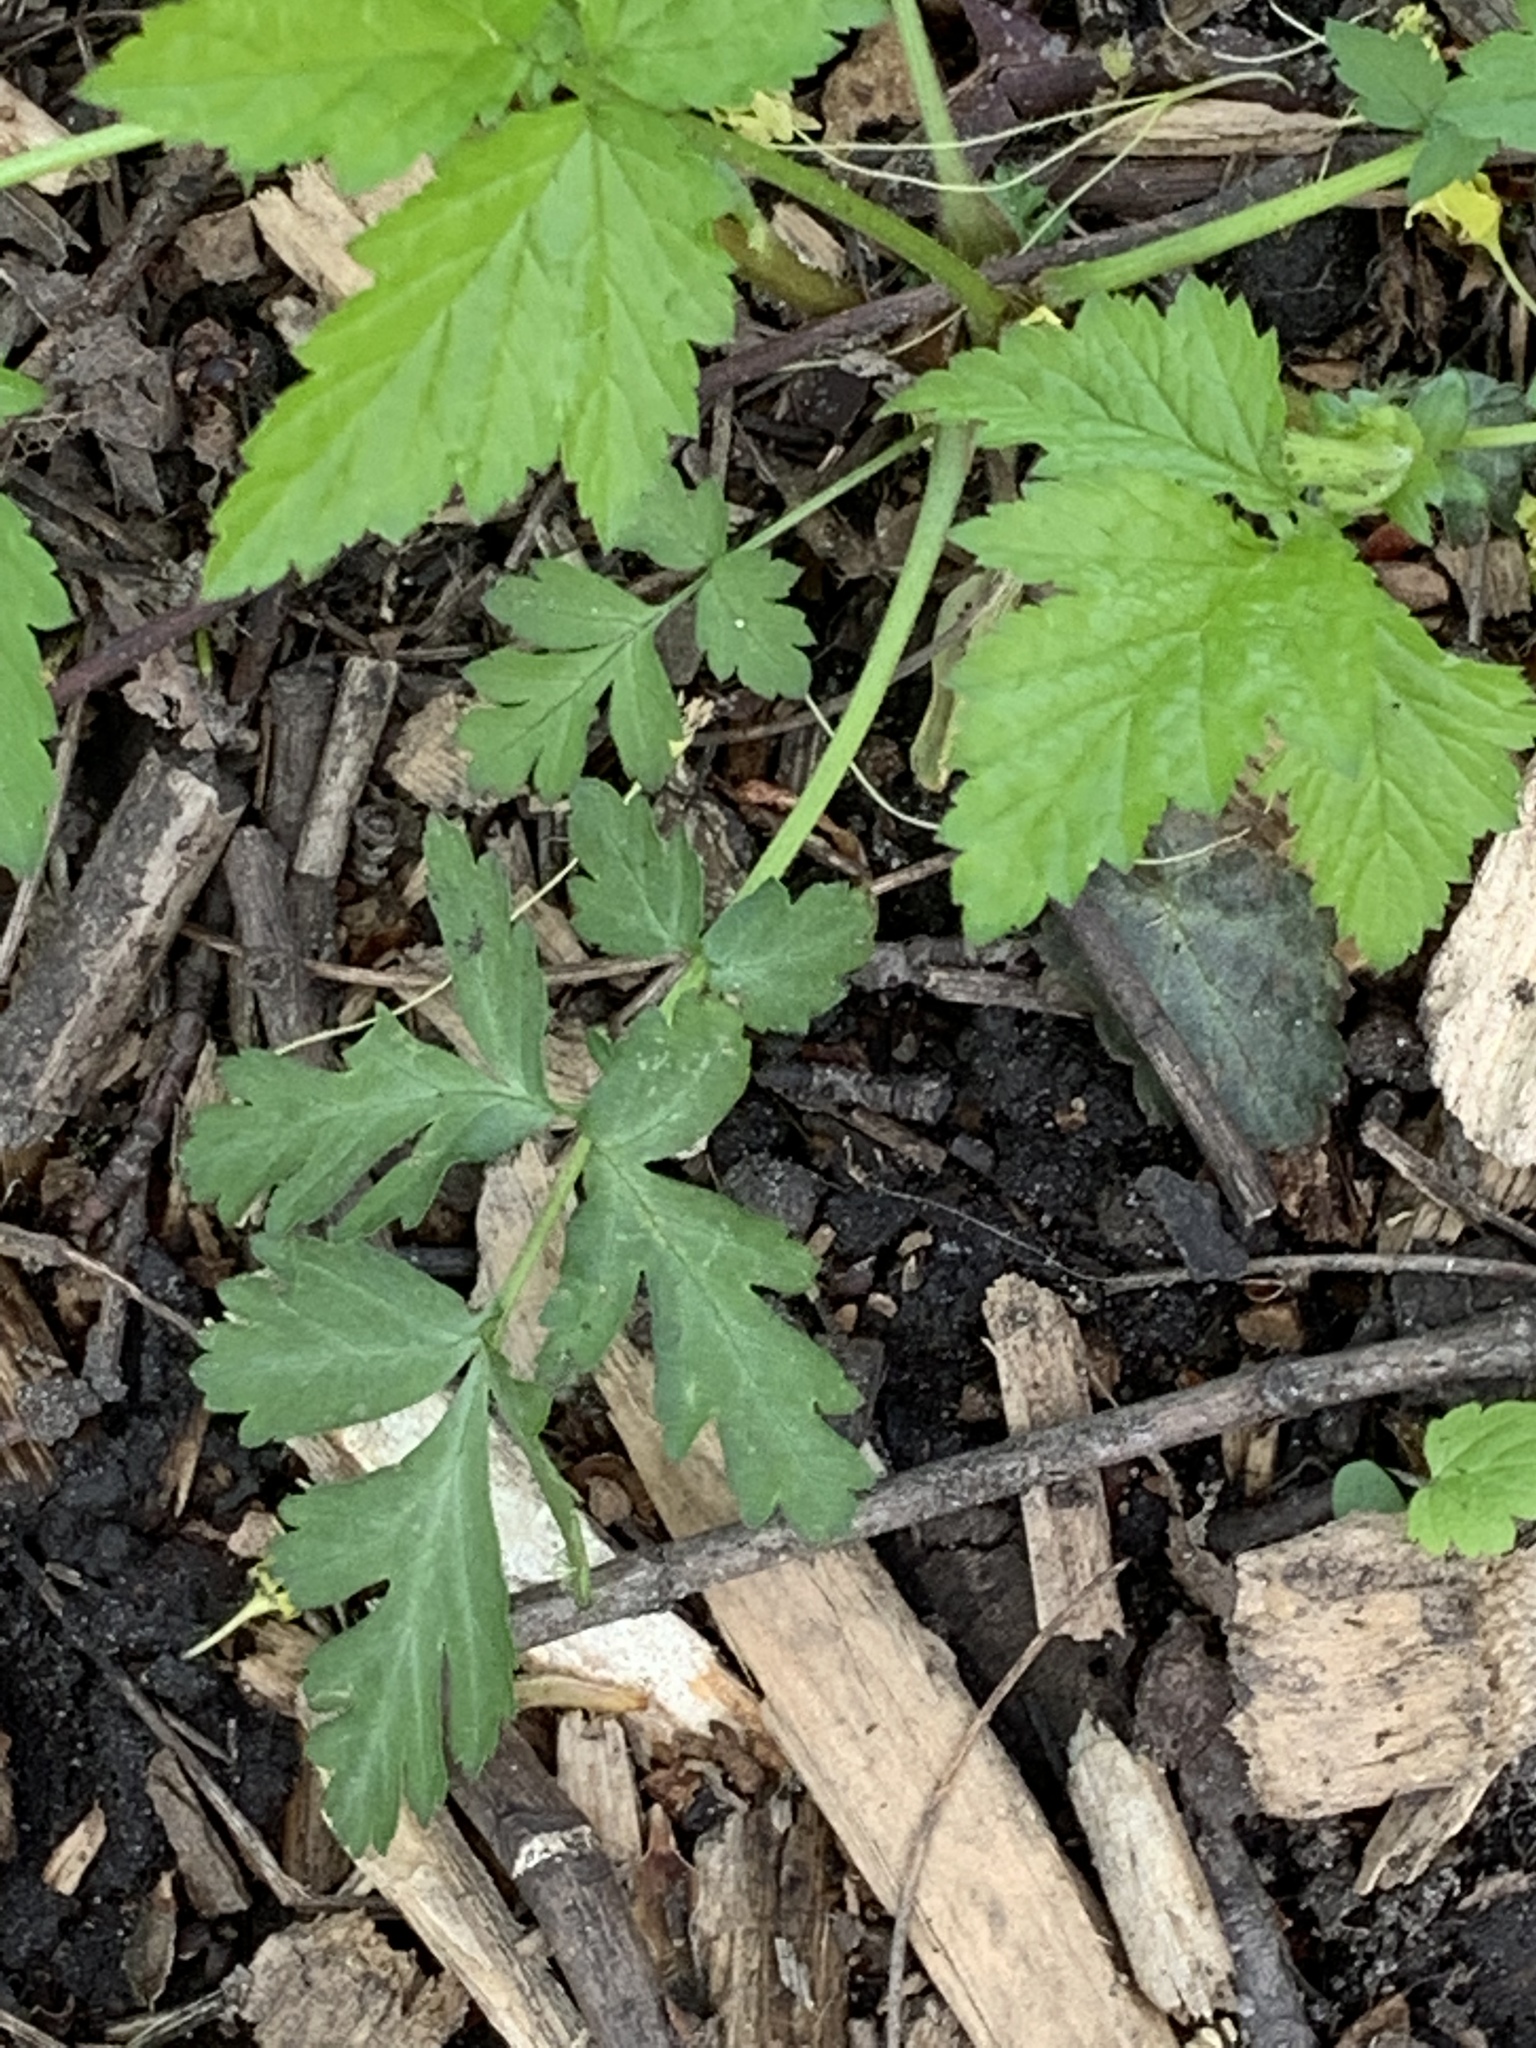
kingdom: Plantae
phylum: Tracheophyta
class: Magnoliopsida
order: Rosales
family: Rosaceae
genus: Geum
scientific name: Geum canadense
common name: White avens
